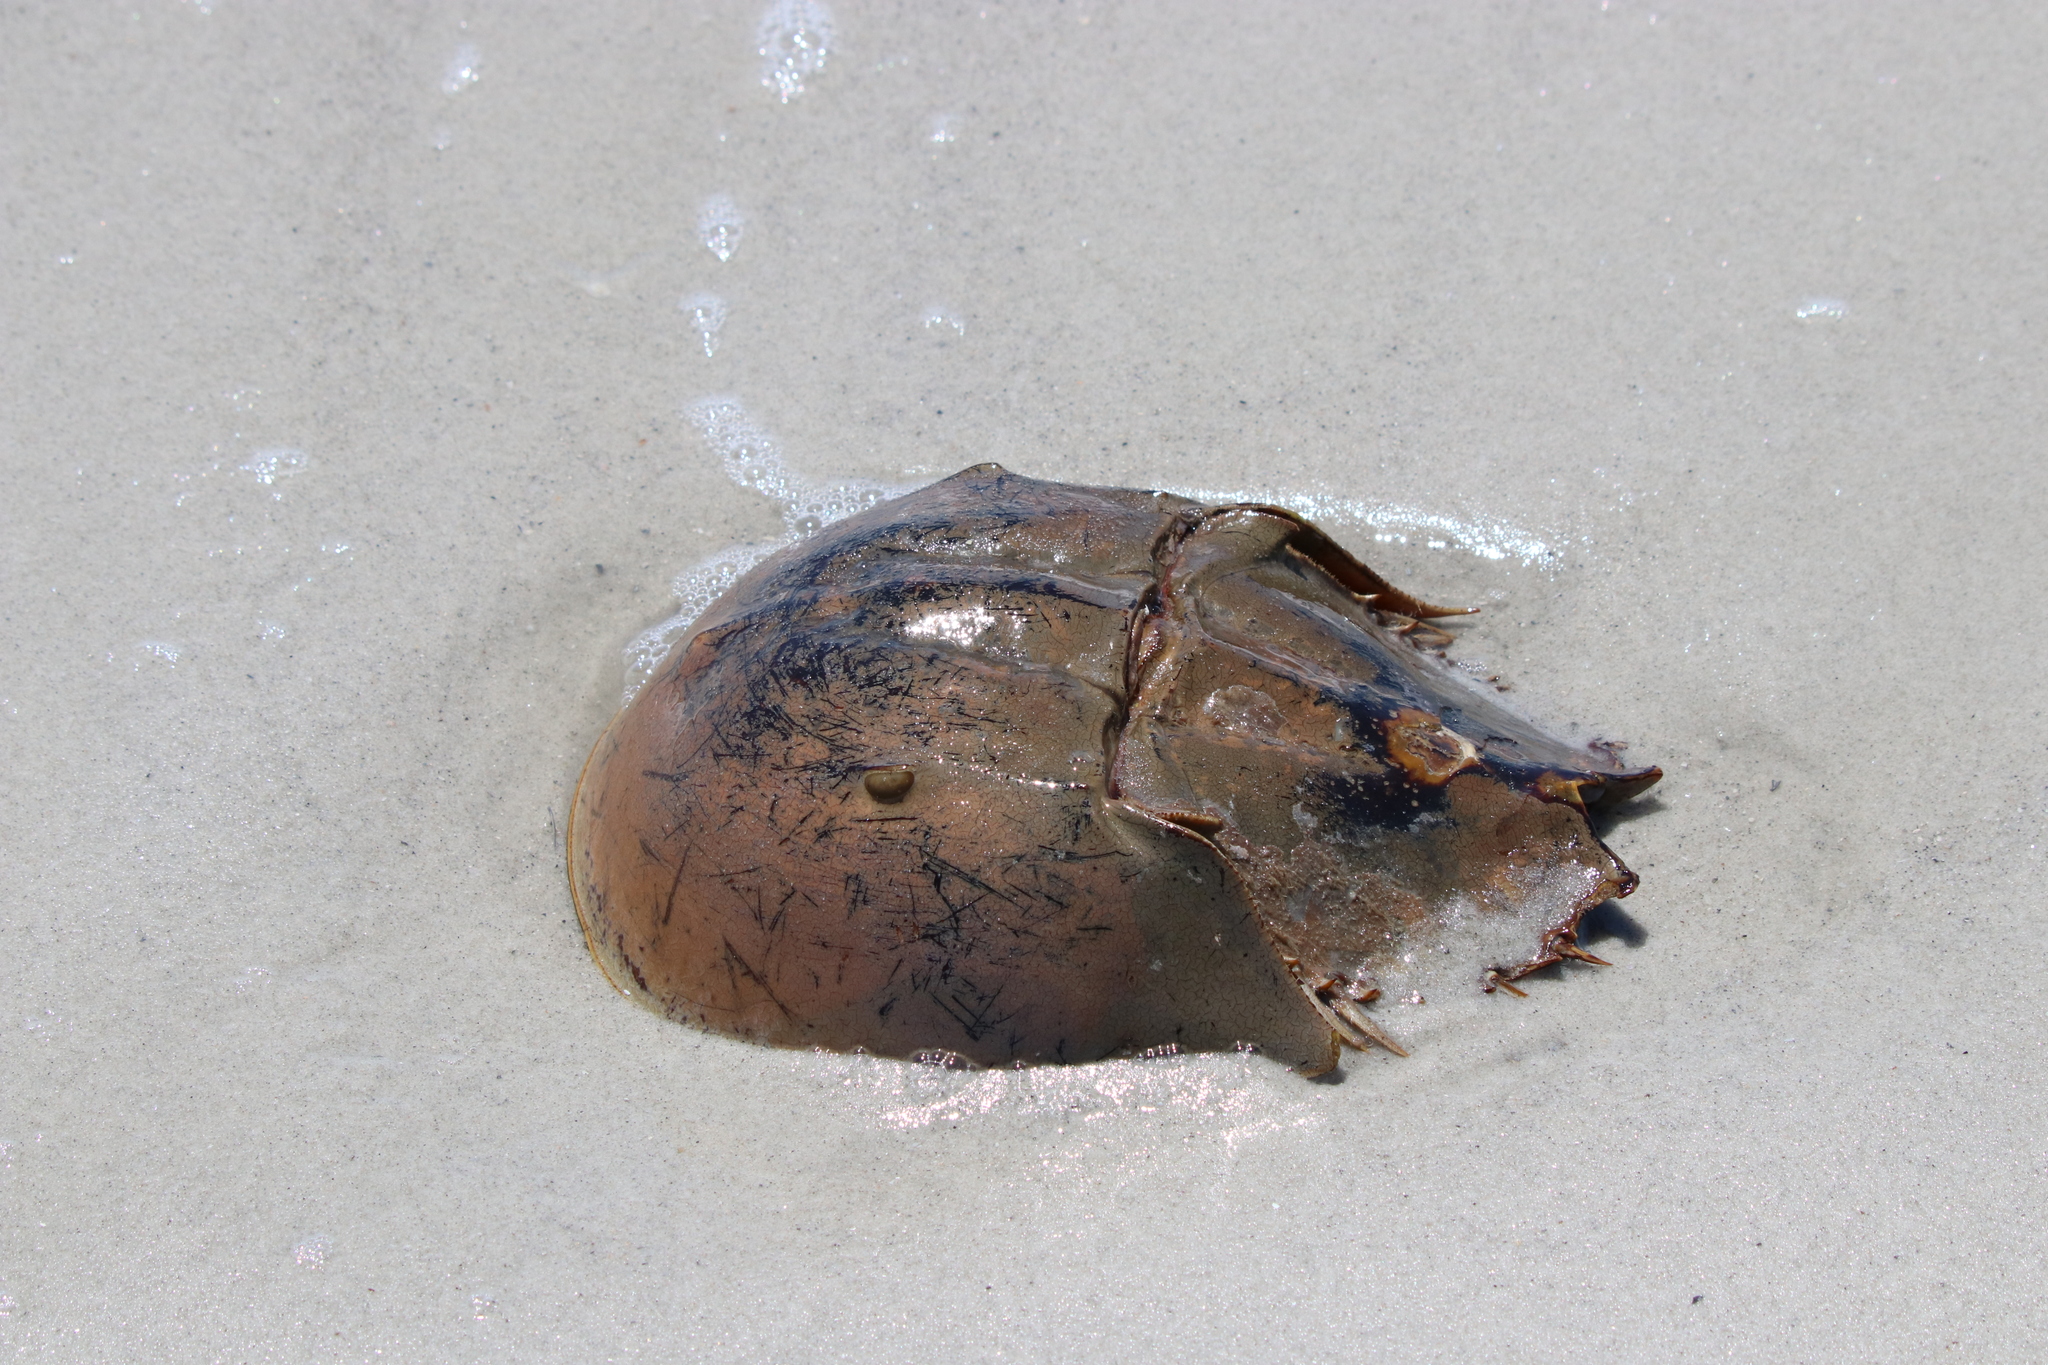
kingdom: Animalia
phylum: Arthropoda
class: Merostomata
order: Xiphosurida
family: Limulidae
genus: Limulus
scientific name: Limulus polyphemus
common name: Horseshoe crab
